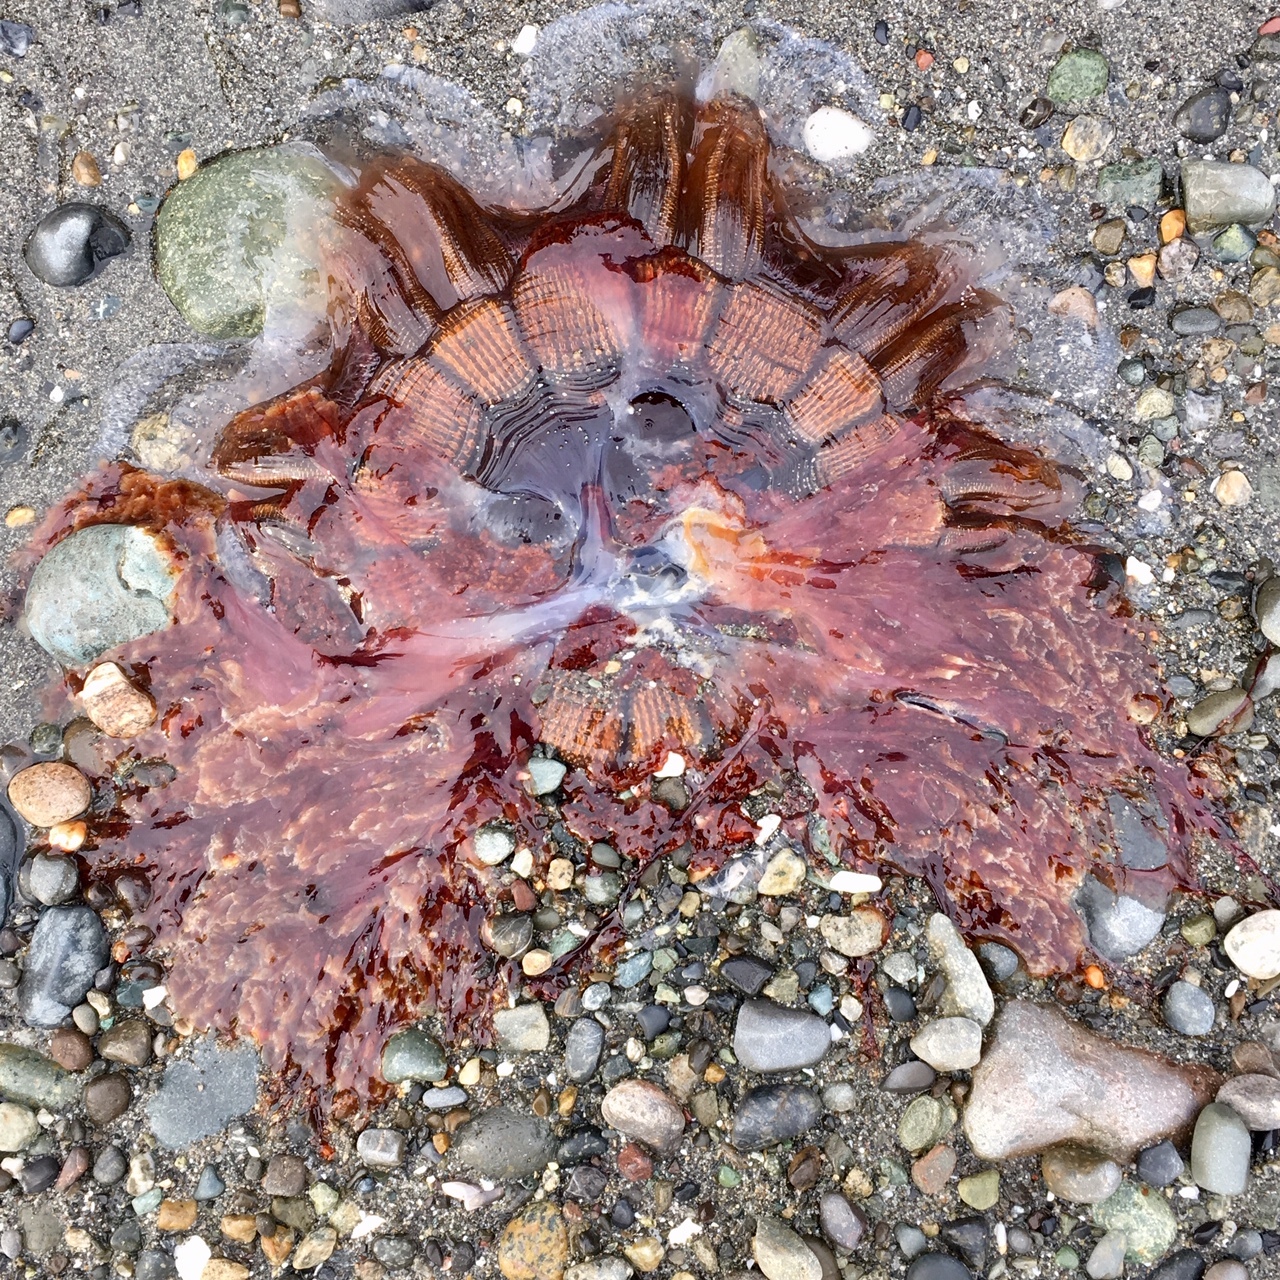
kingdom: Animalia
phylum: Cnidaria
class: Scyphozoa
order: Semaeostomeae
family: Cyaneidae
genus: Cyanea
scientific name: Cyanea ferruginea
